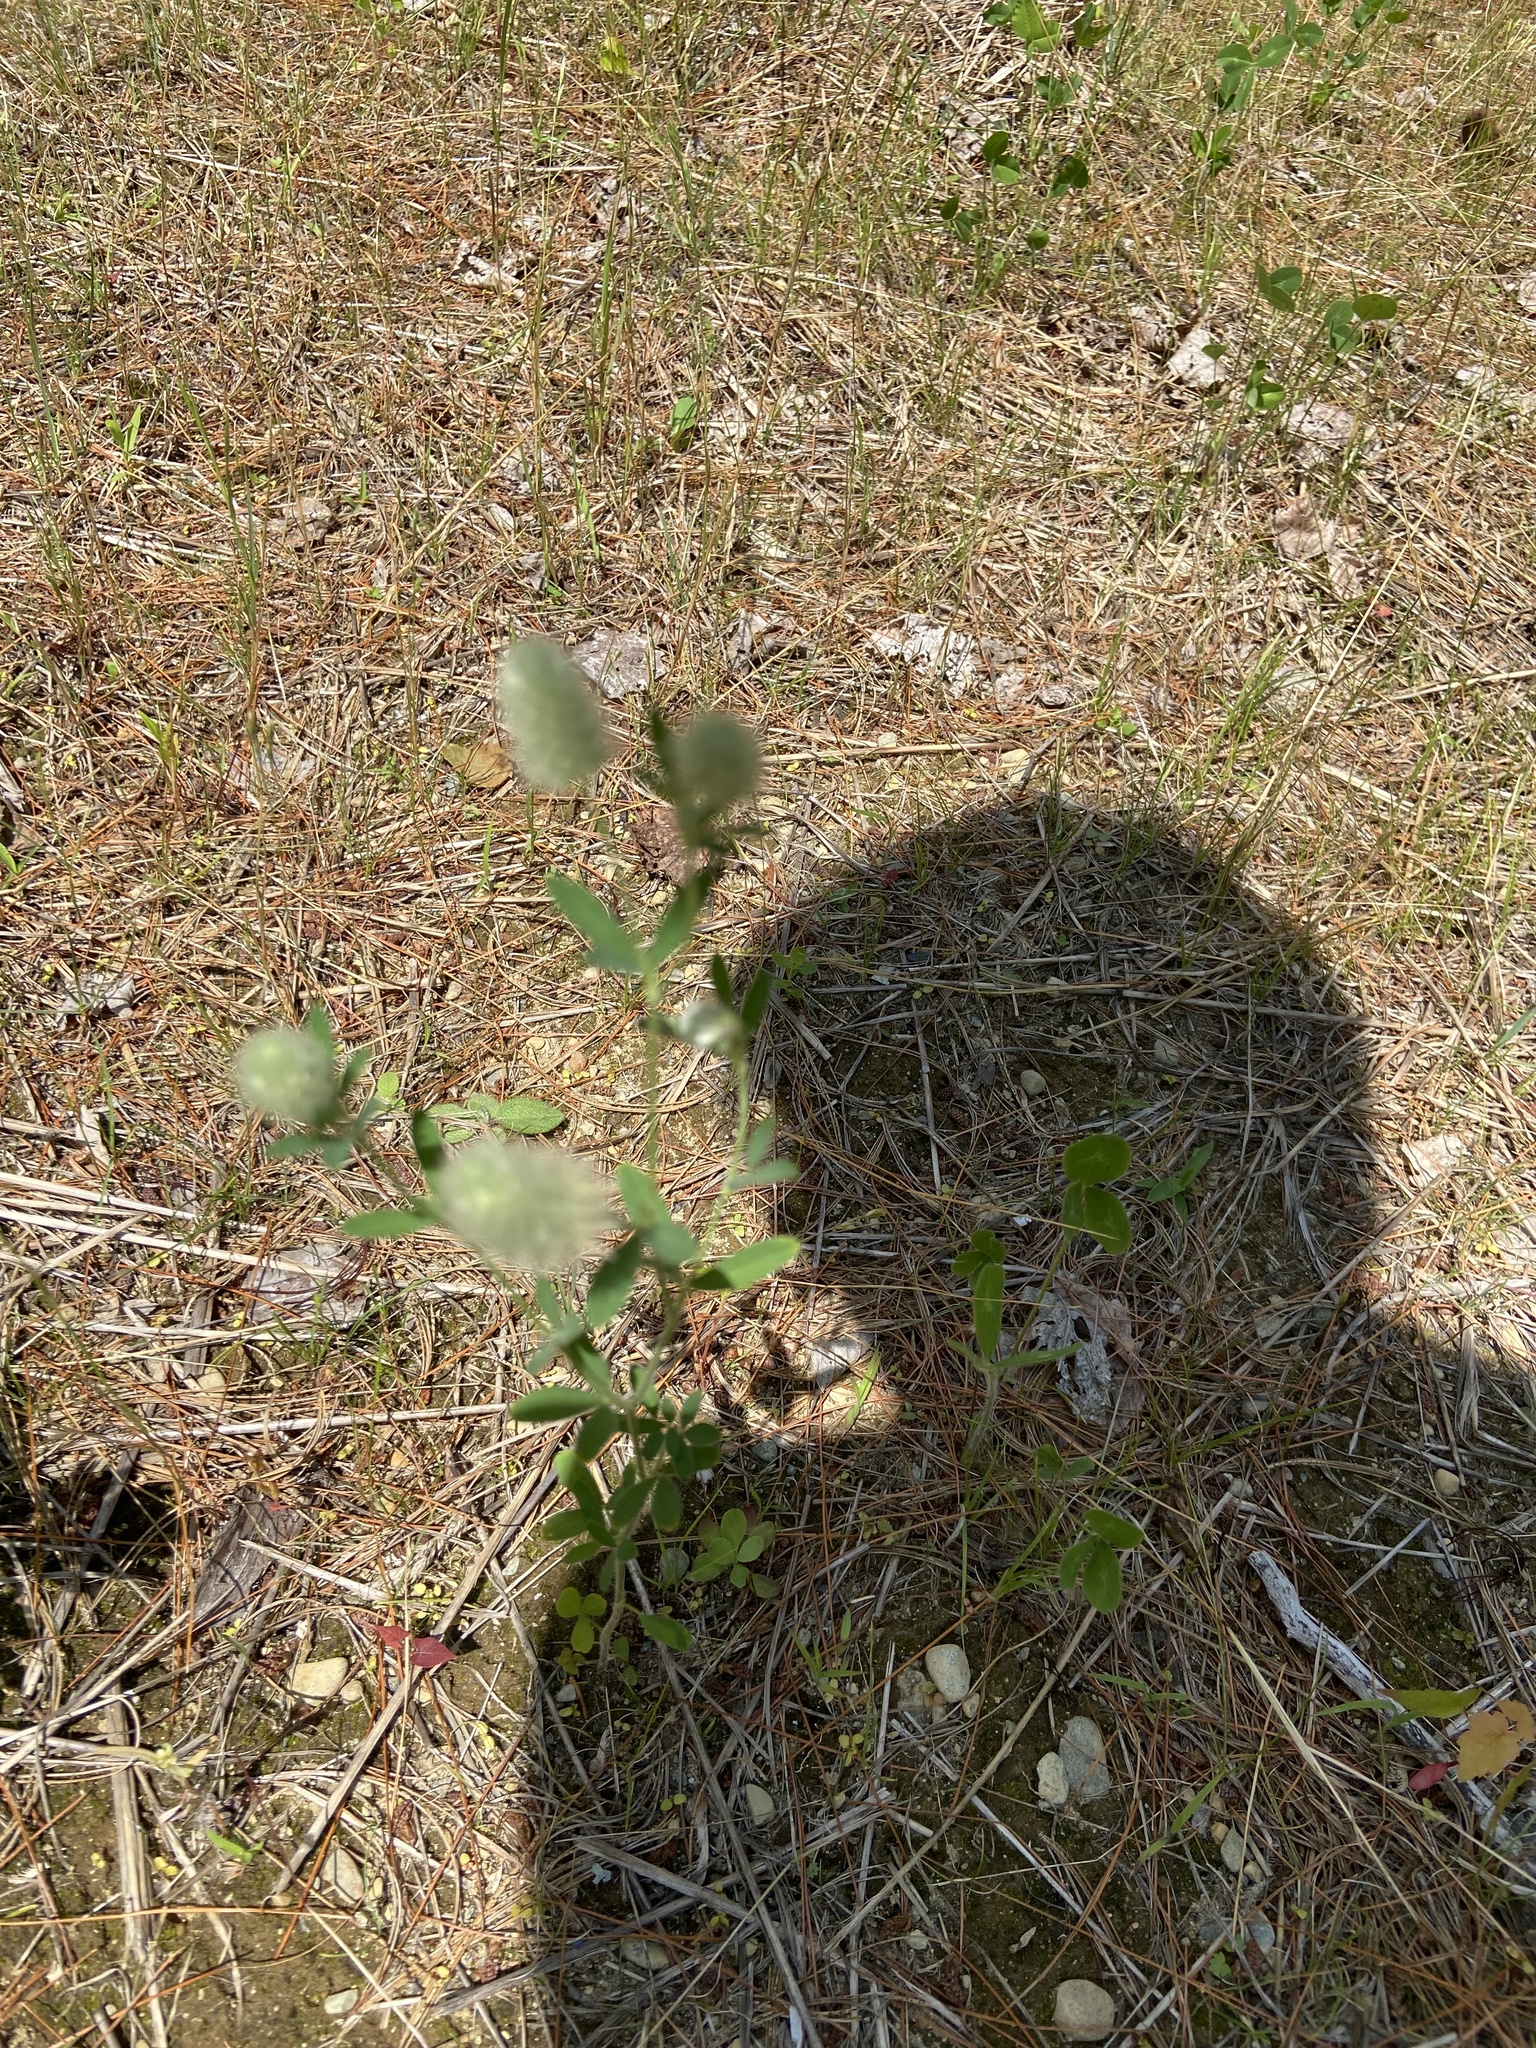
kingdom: Plantae
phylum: Tracheophyta
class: Magnoliopsida
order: Fabales
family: Fabaceae
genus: Trifolium
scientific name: Trifolium arvense
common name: Hare's-foot clover
